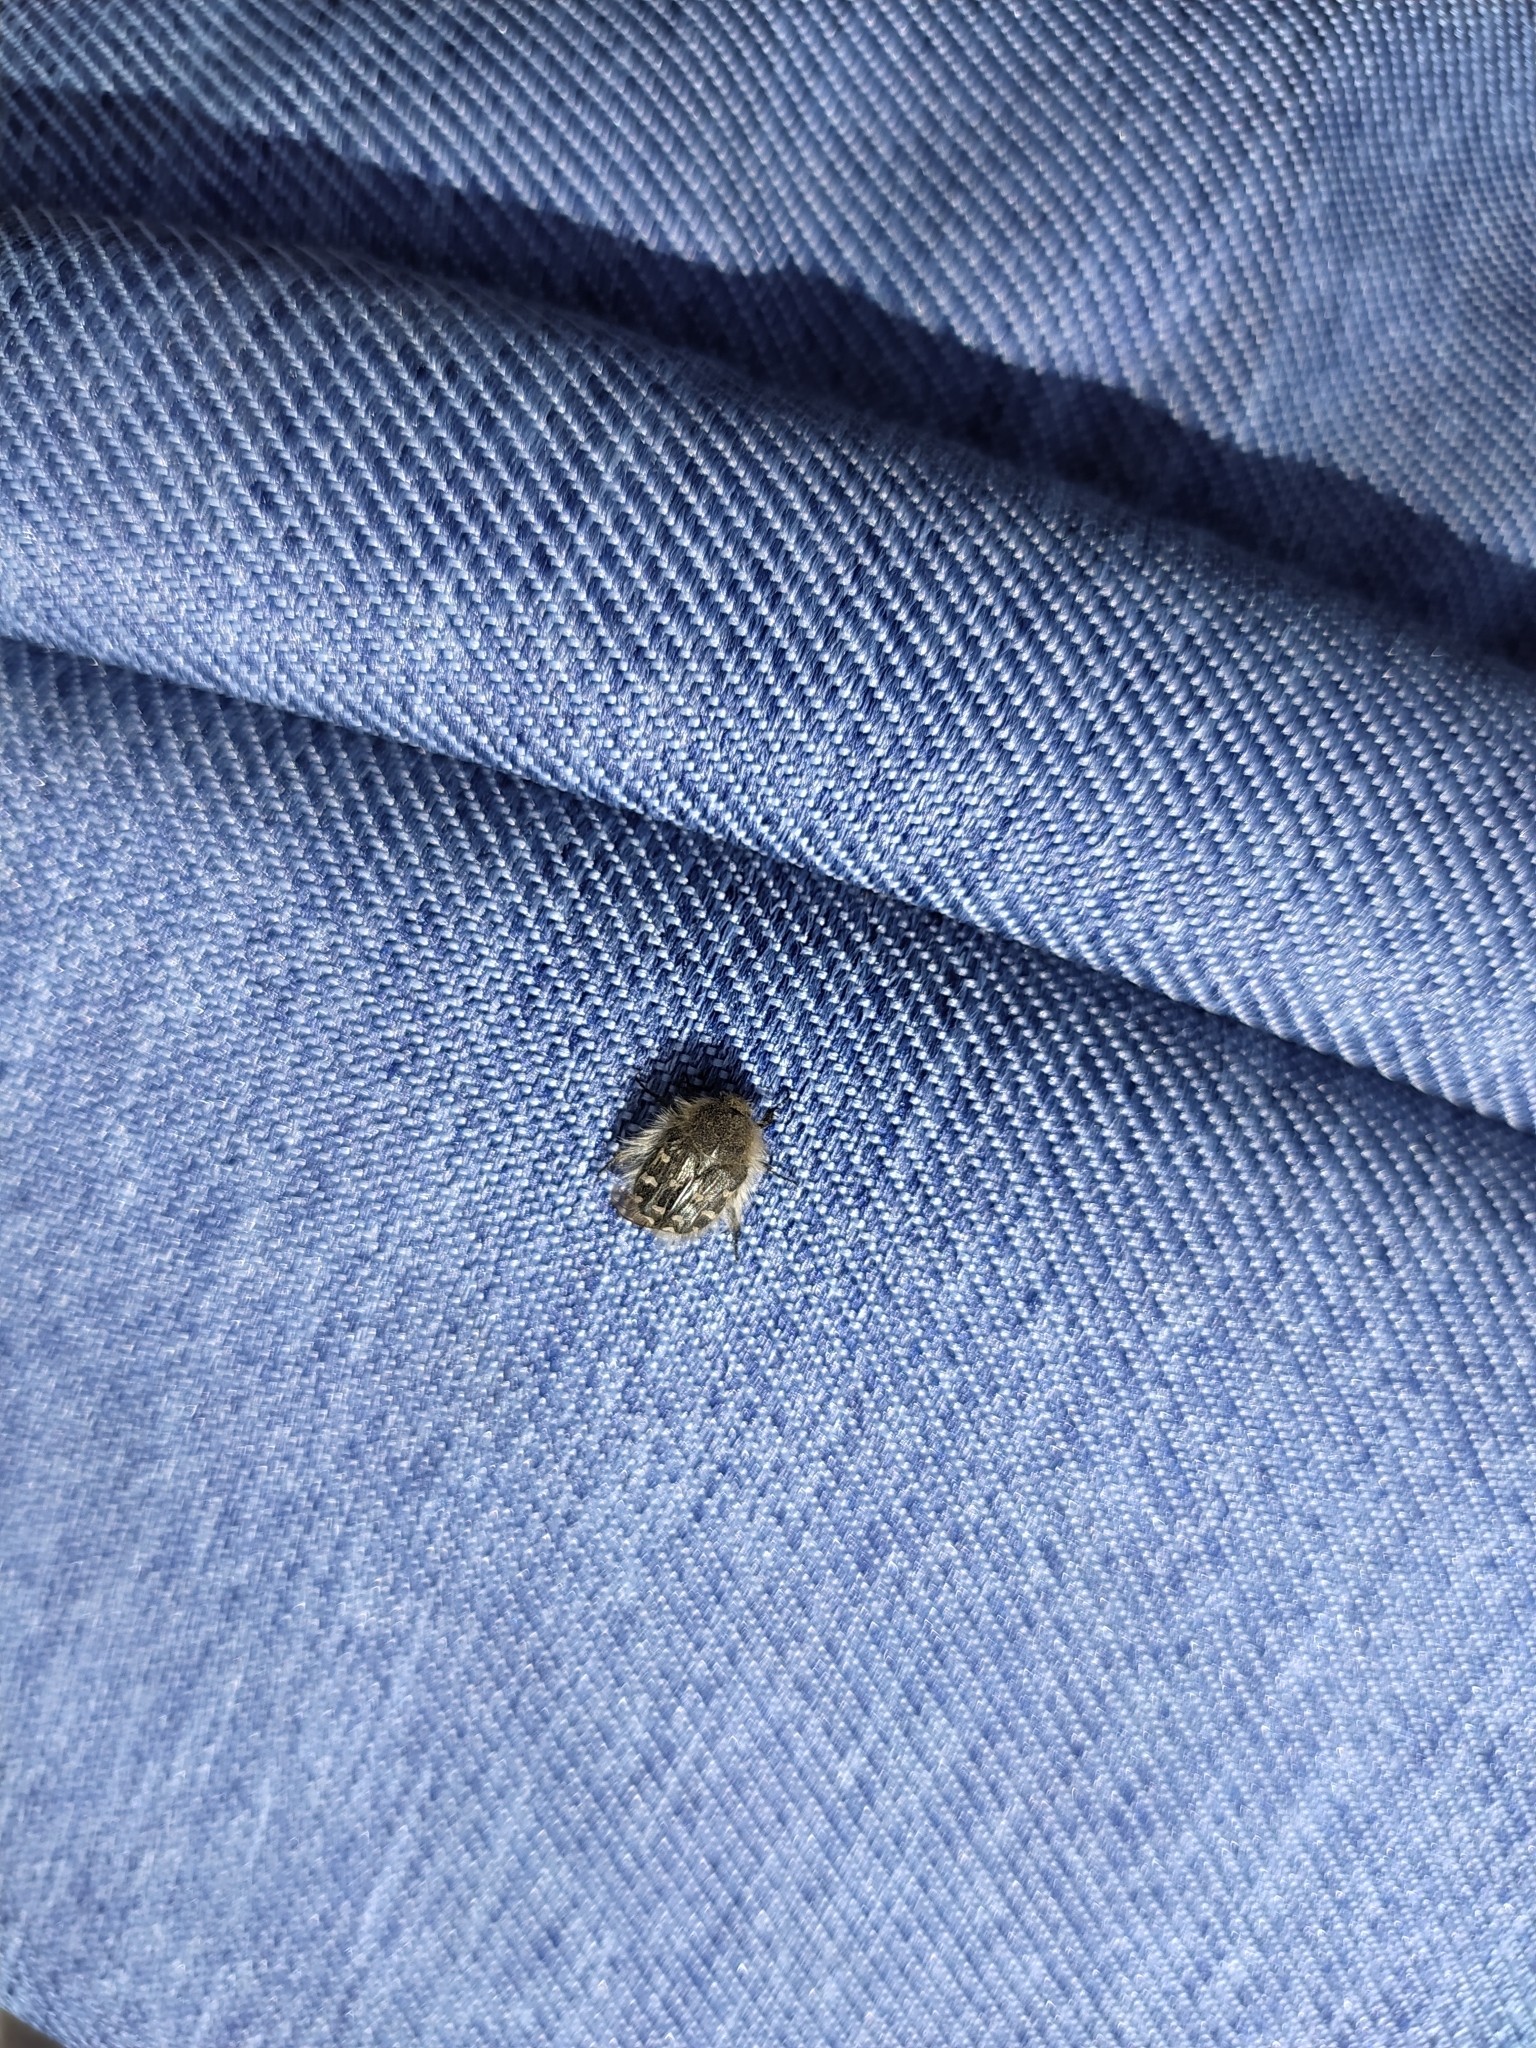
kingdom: Animalia
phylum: Arthropoda
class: Insecta
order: Coleoptera
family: Scarabaeidae
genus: Tropinota
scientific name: Tropinota hirta
